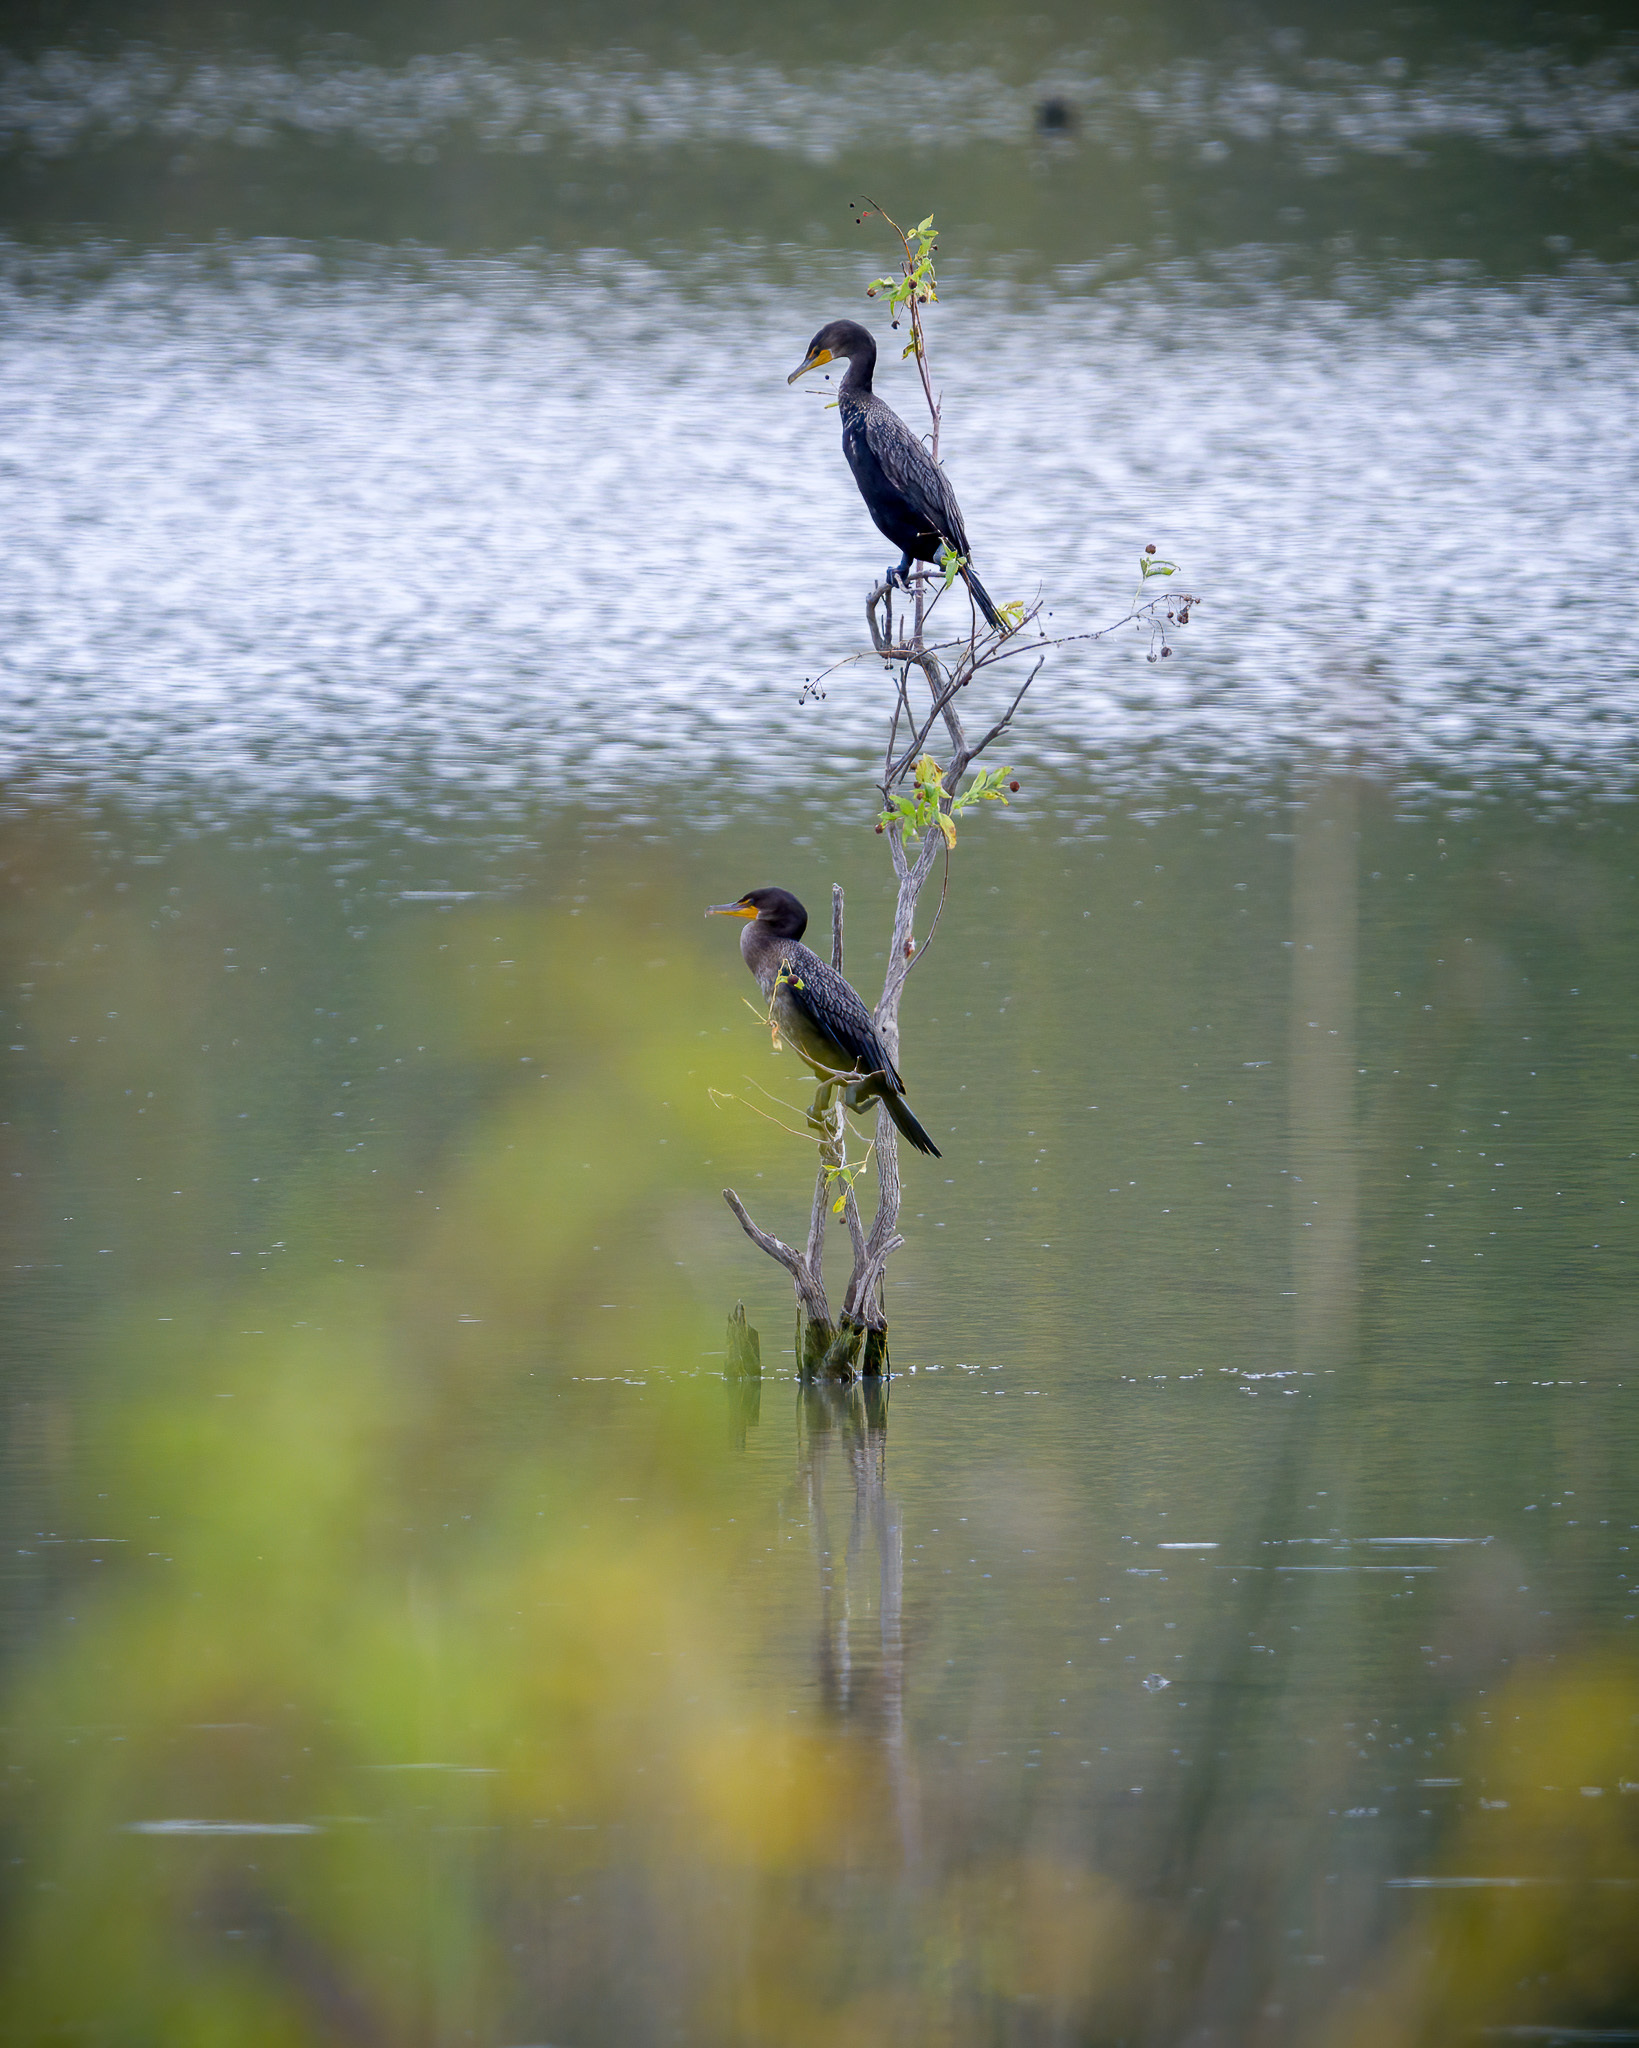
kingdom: Animalia
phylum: Chordata
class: Aves
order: Suliformes
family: Phalacrocoracidae
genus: Phalacrocorax
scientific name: Phalacrocorax auritus
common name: Double-crested cormorant
